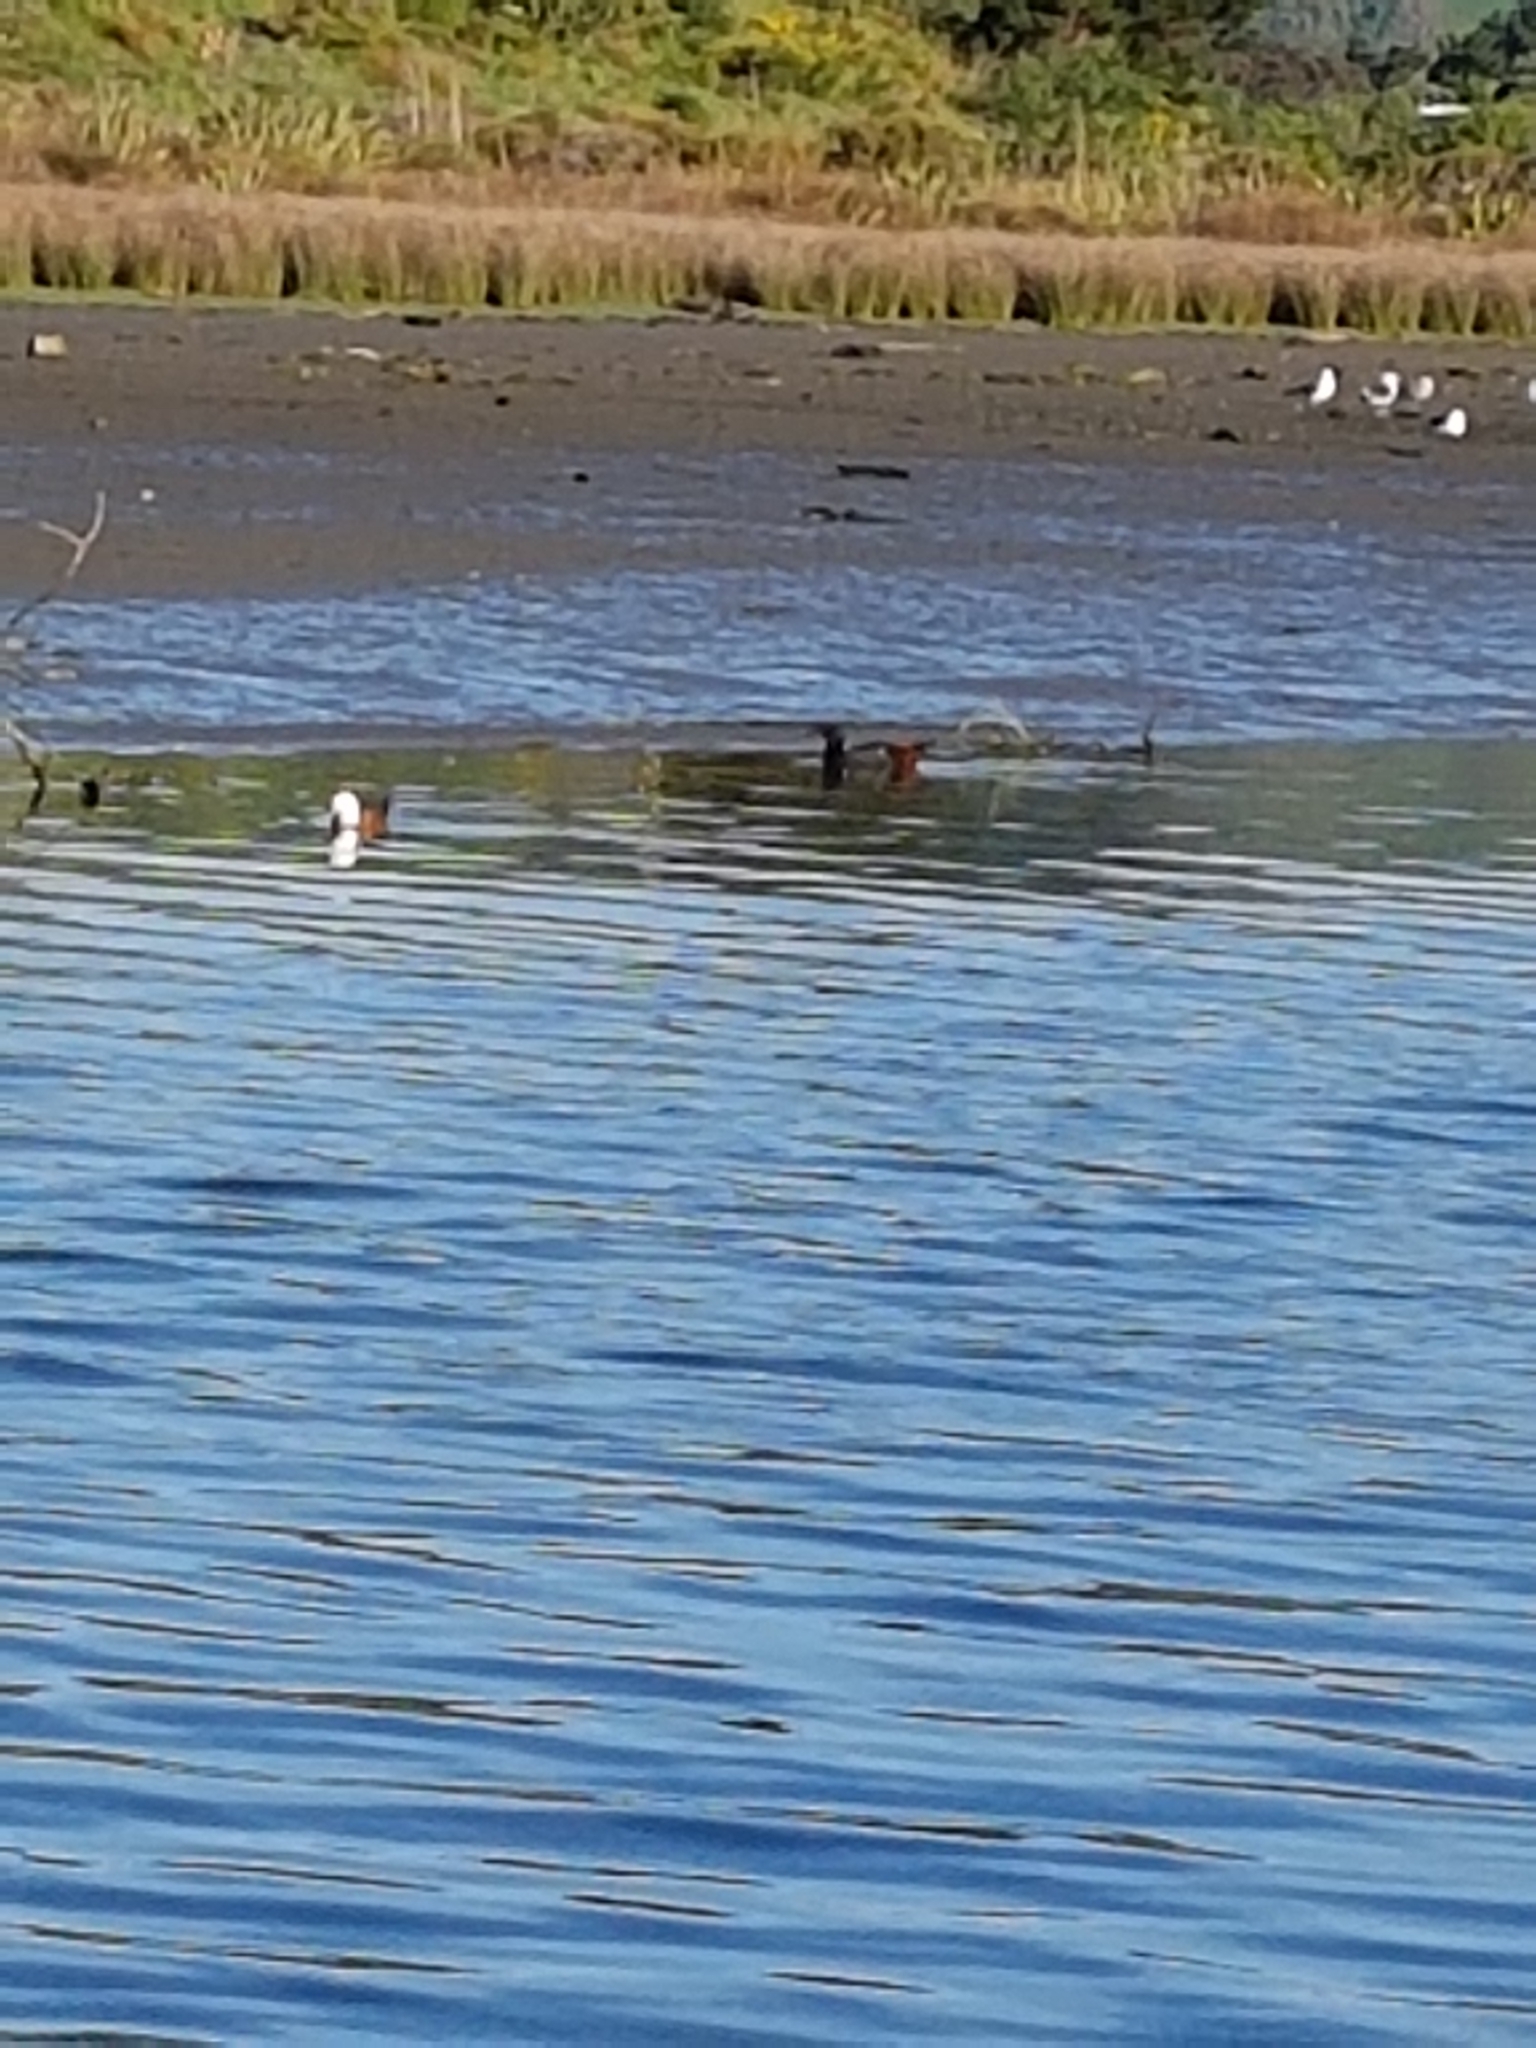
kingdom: Animalia
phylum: Chordata
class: Aves
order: Anseriformes
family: Anatidae
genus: Tadorna
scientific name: Tadorna variegata
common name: Paradise shelduck
